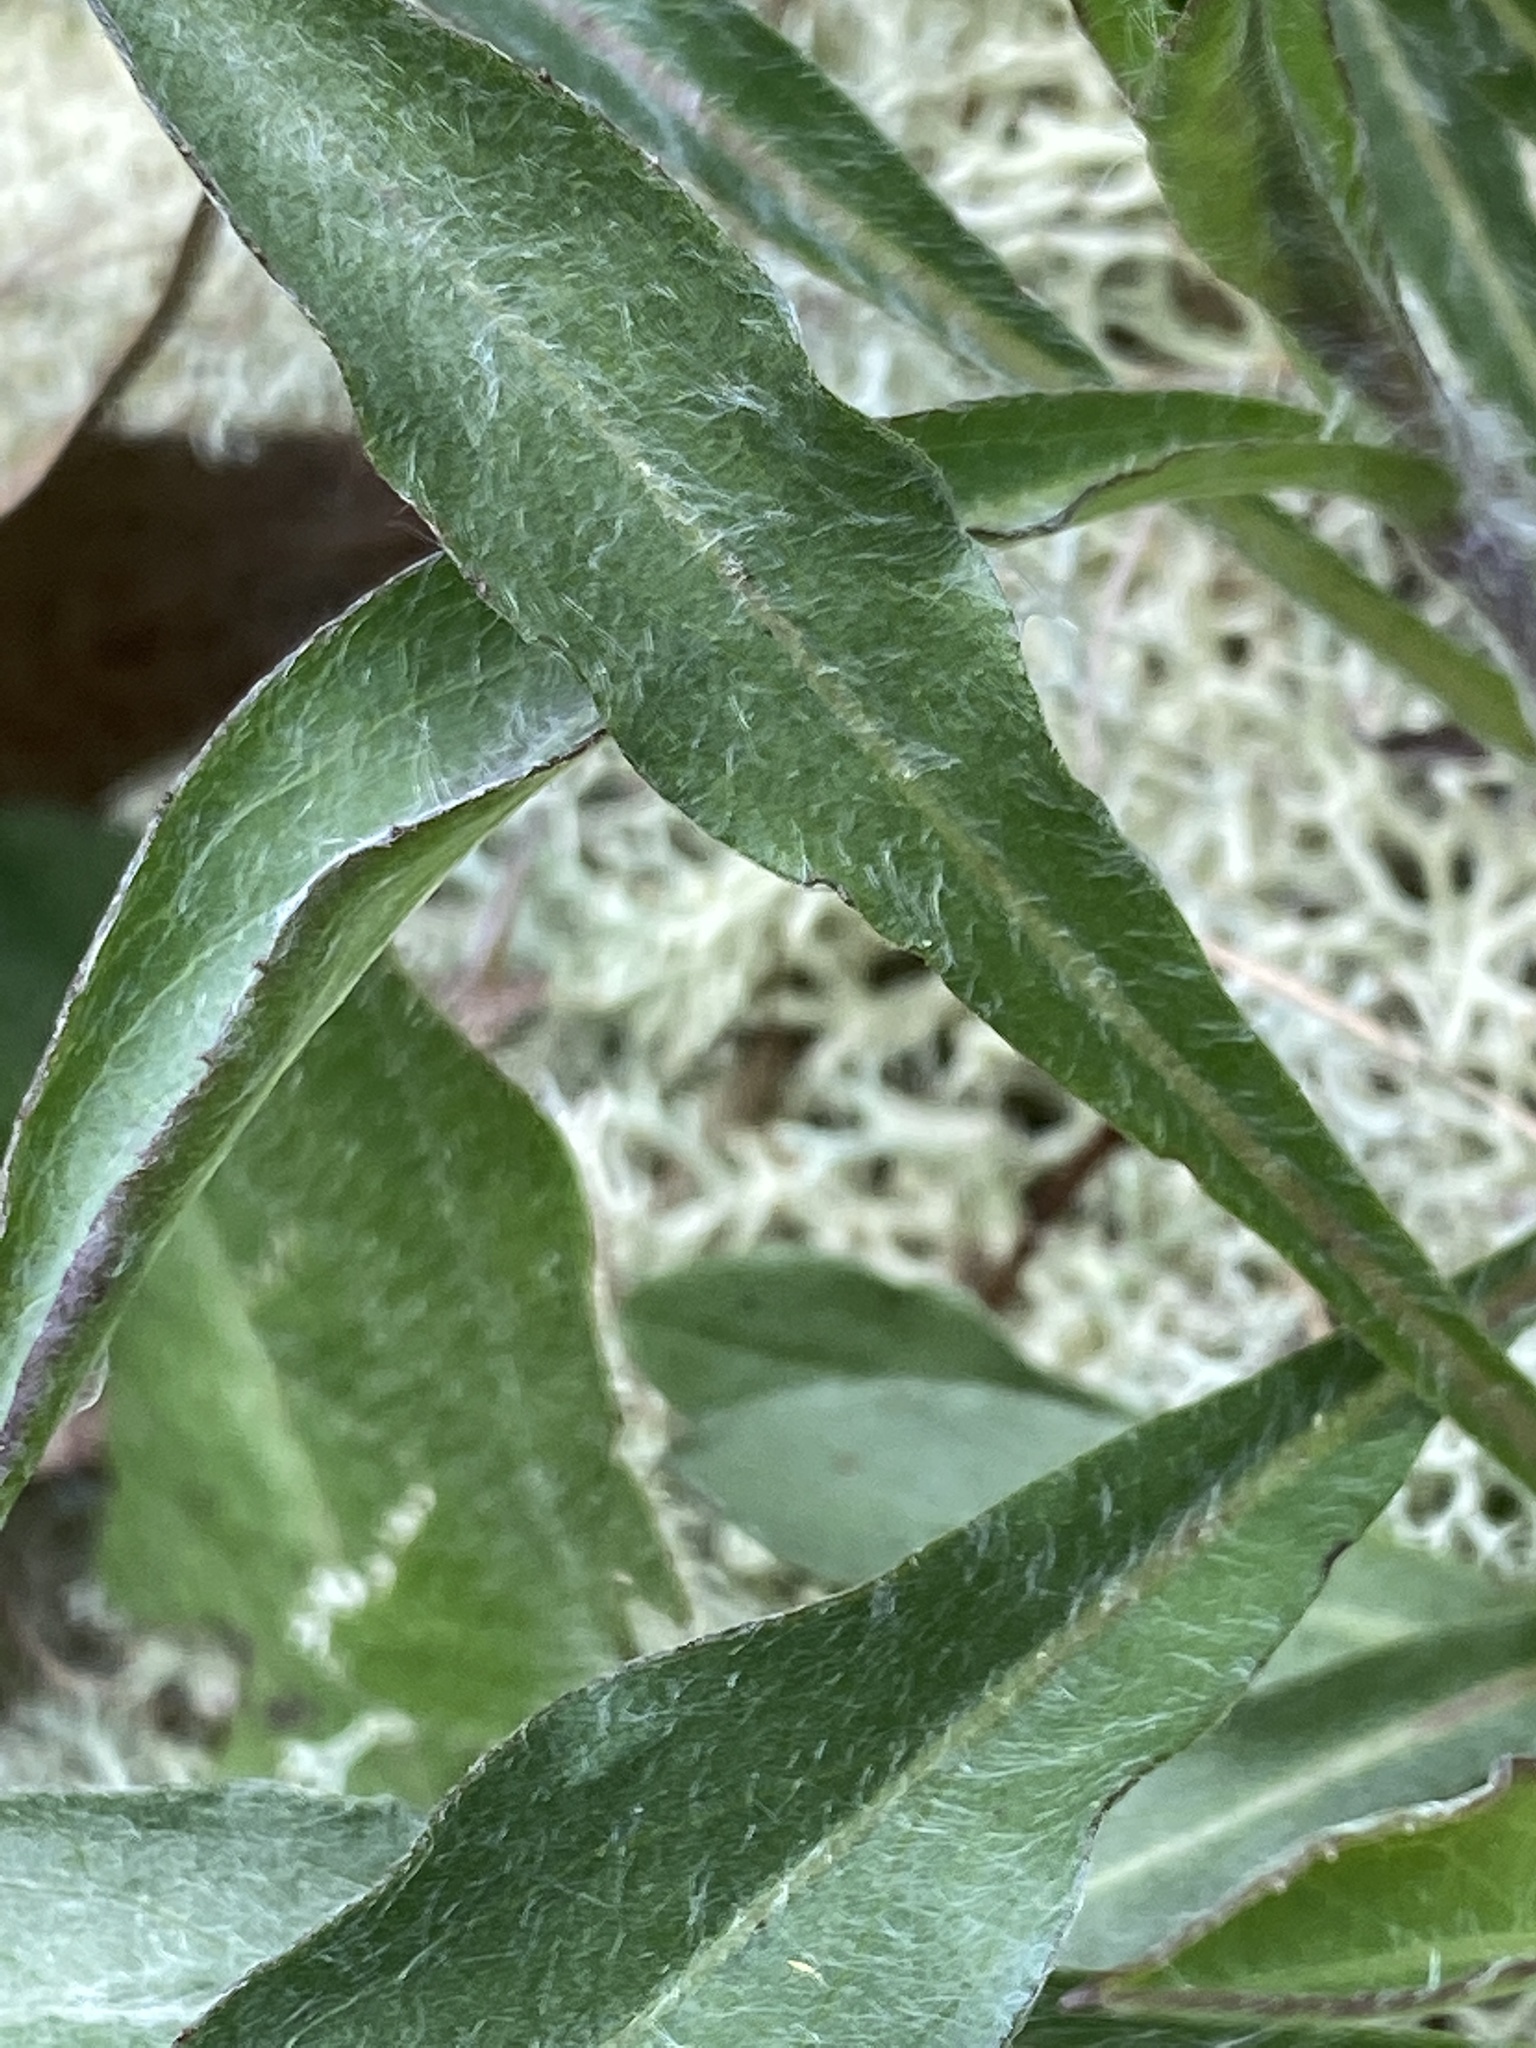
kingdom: Plantae
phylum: Tracheophyta
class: Magnoliopsida
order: Asterales
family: Asteraceae
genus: Chrysopsis
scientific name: Chrysopsis mariana
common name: Maryland golden-aster
